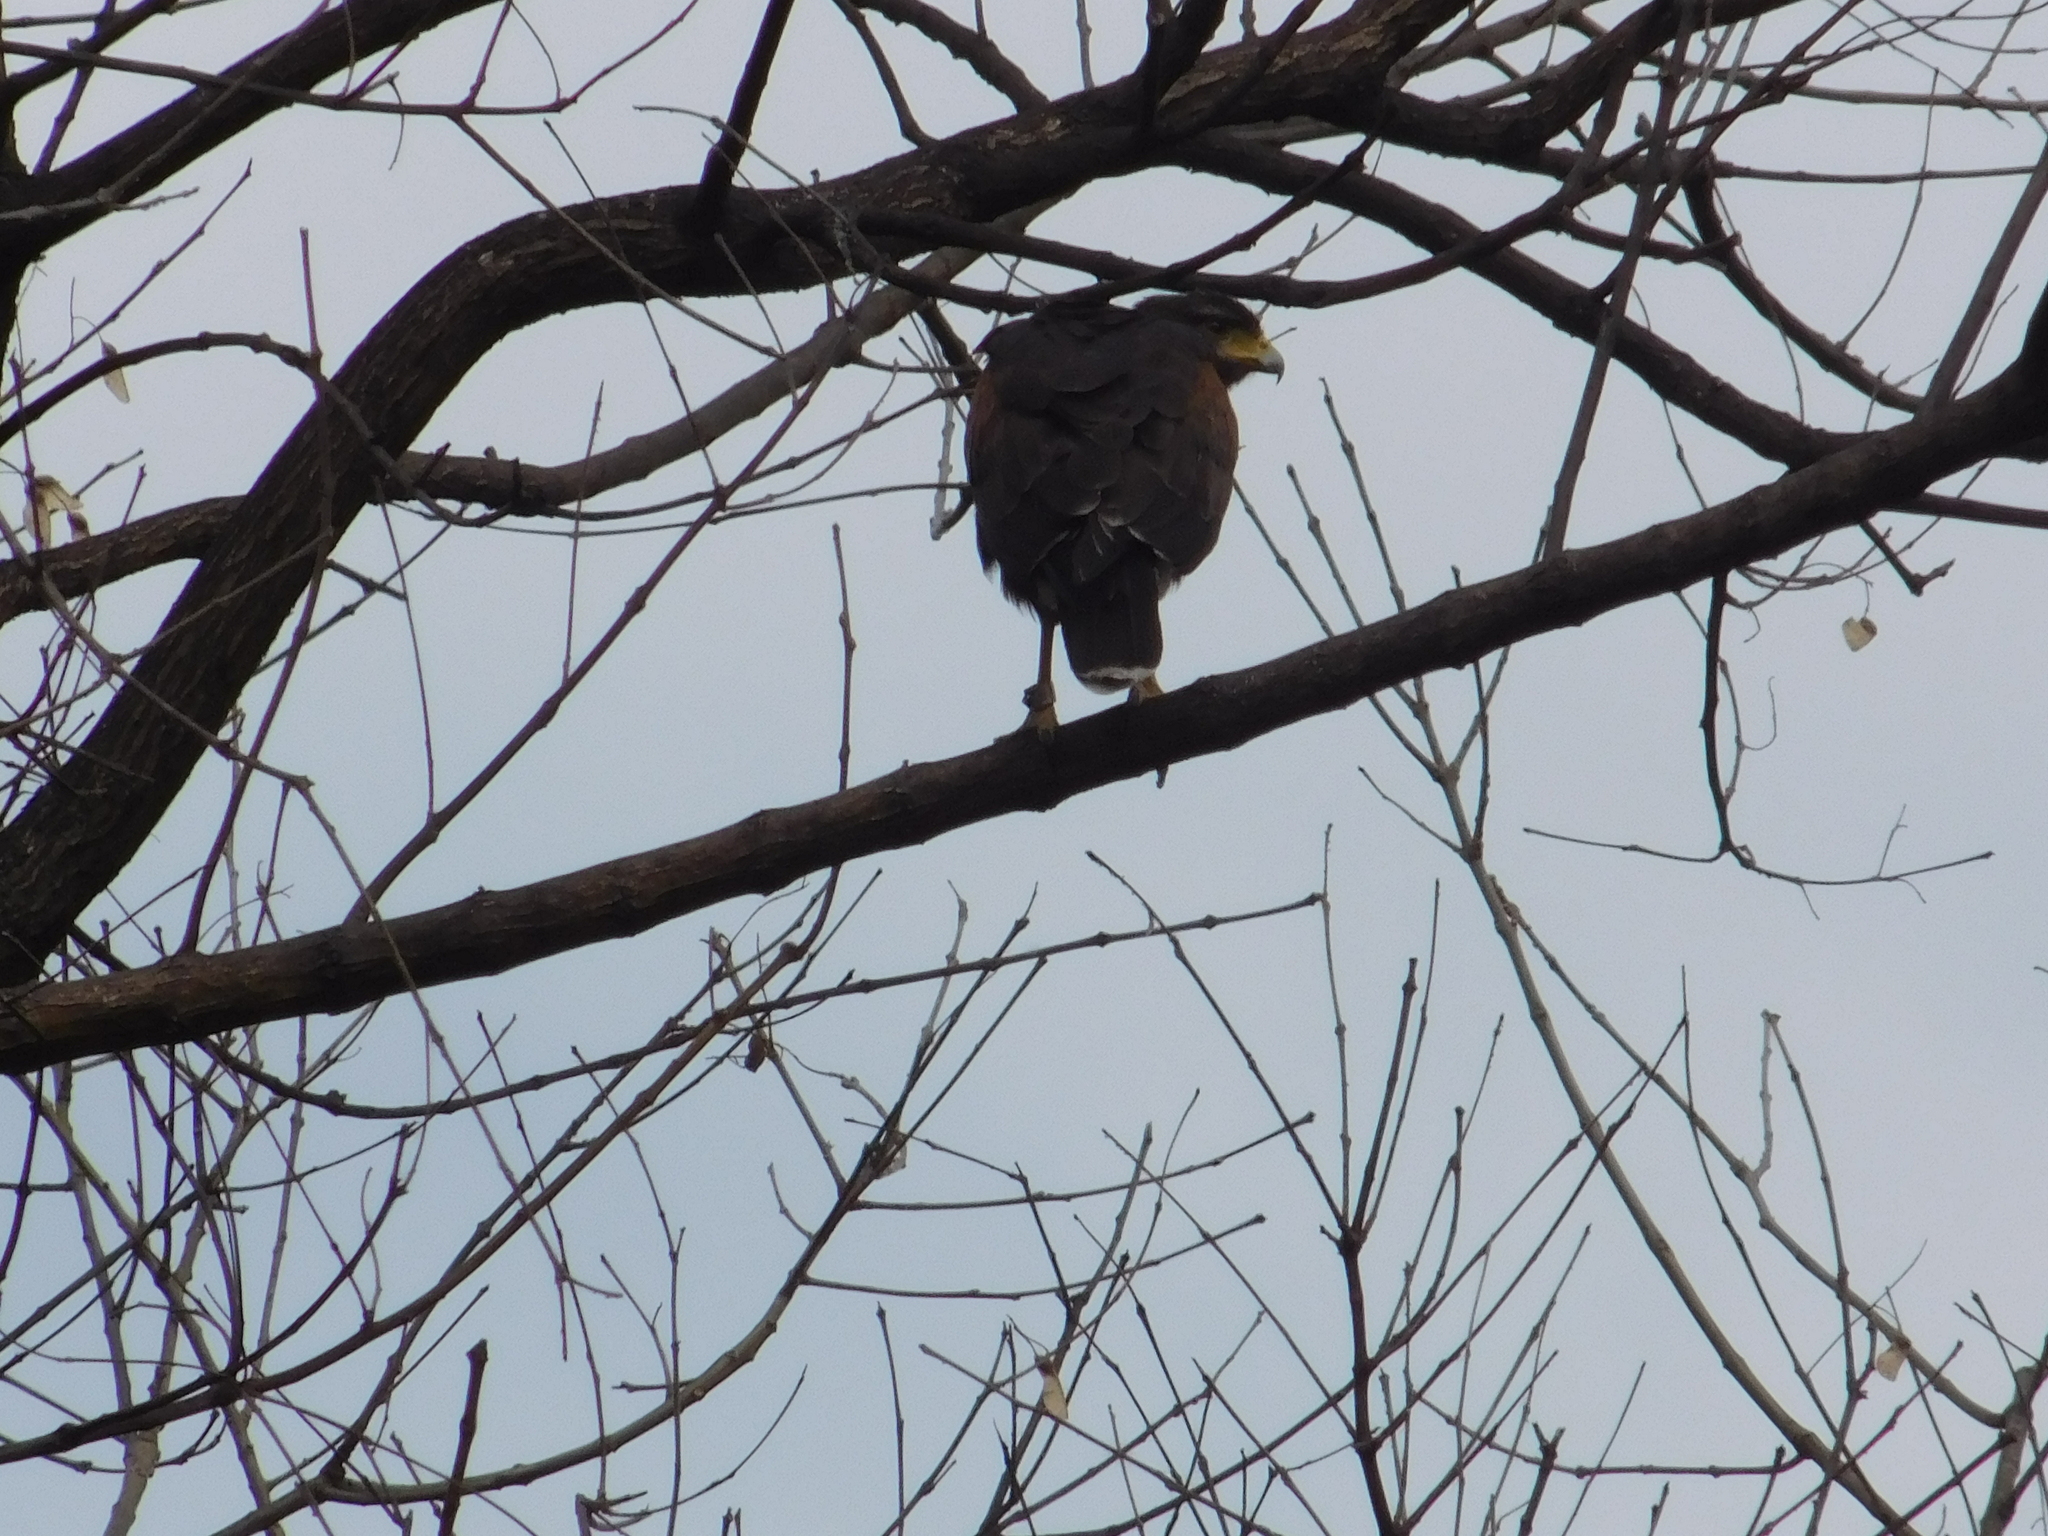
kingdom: Animalia
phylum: Chordata
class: Aves
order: Accipitriformes
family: Accipitridae
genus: Parabuteo
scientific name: Parabuteo unicinctus
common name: Harris's hawk
